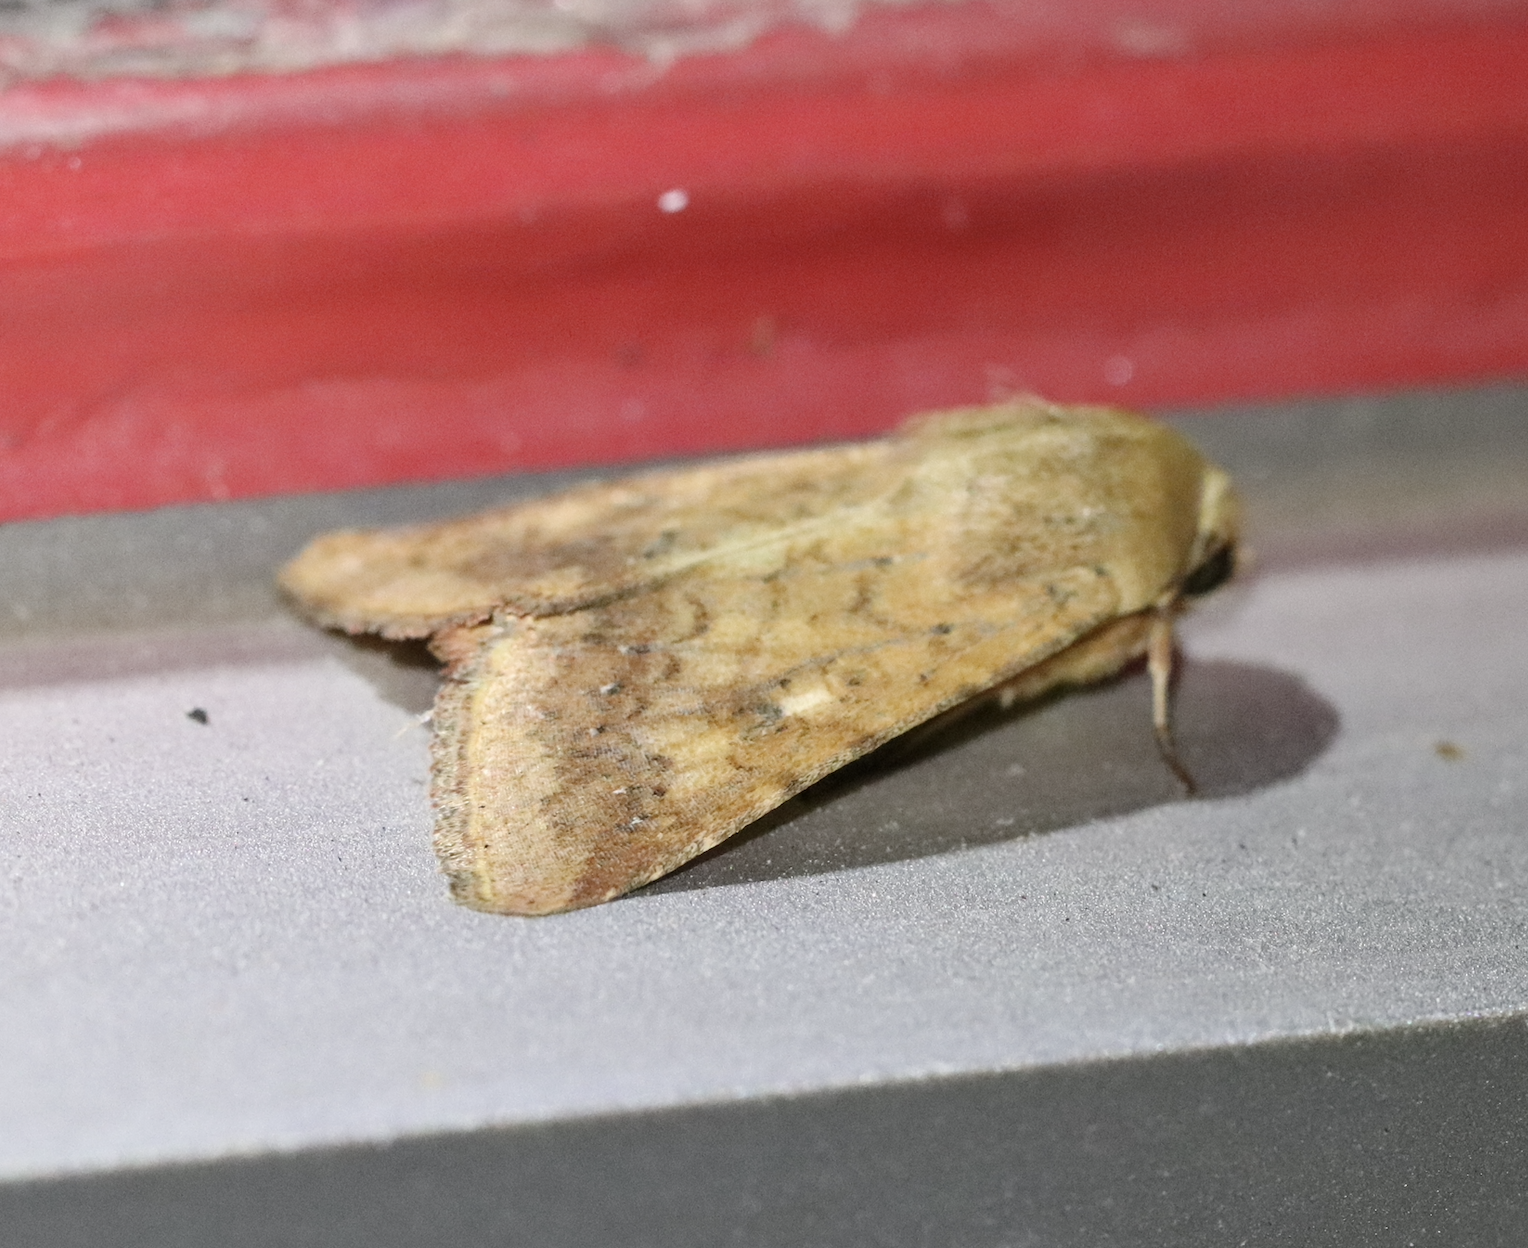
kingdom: Animalia
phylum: Arthropoda
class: Insecta
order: Lepidoptera
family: Noctuidae
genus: Helicoverpa
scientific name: Helicoverpa armigera
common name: Cotton bollworm
